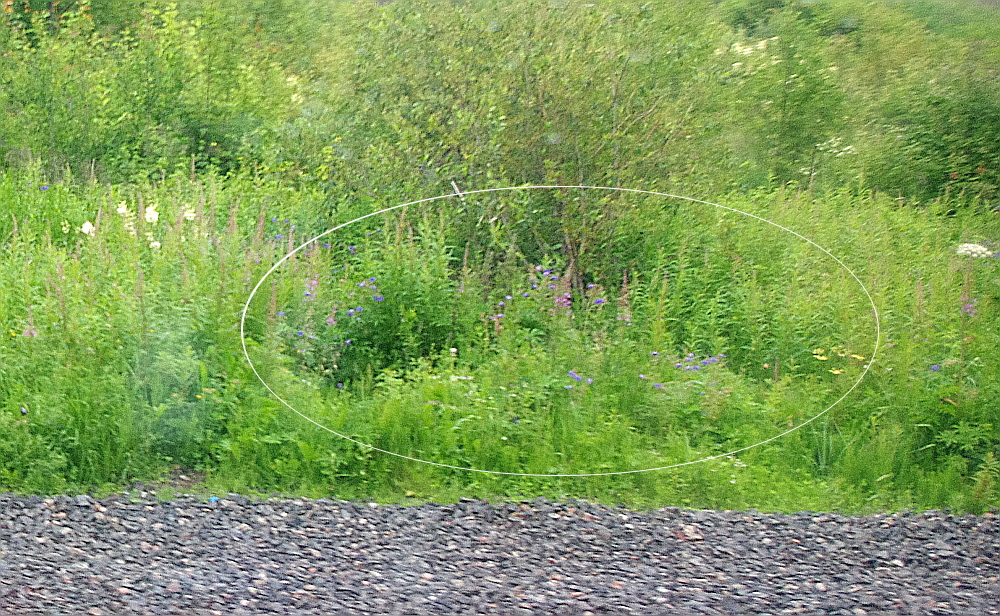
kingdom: Plantae
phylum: Tracheophyta
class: Magnoliopsida
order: Myrtales
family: Onagraceae
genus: Chamaenerion
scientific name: Chamaenerion angustifolium
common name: Fireweed
